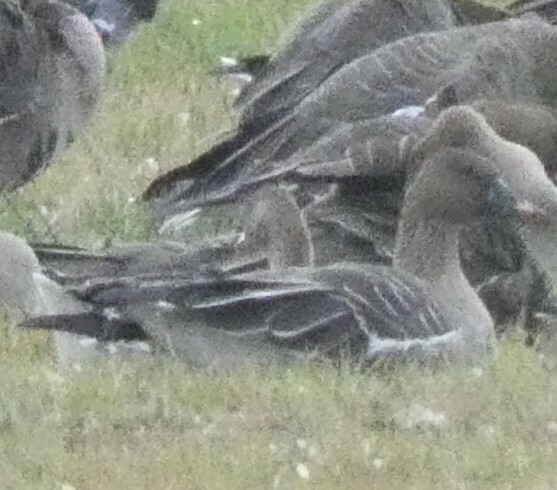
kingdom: Animalia
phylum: Chordata
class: Aves
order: Anseriformes
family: Anatidae
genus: Anser
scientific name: Anser serrirostris
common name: Tundra bean goose
